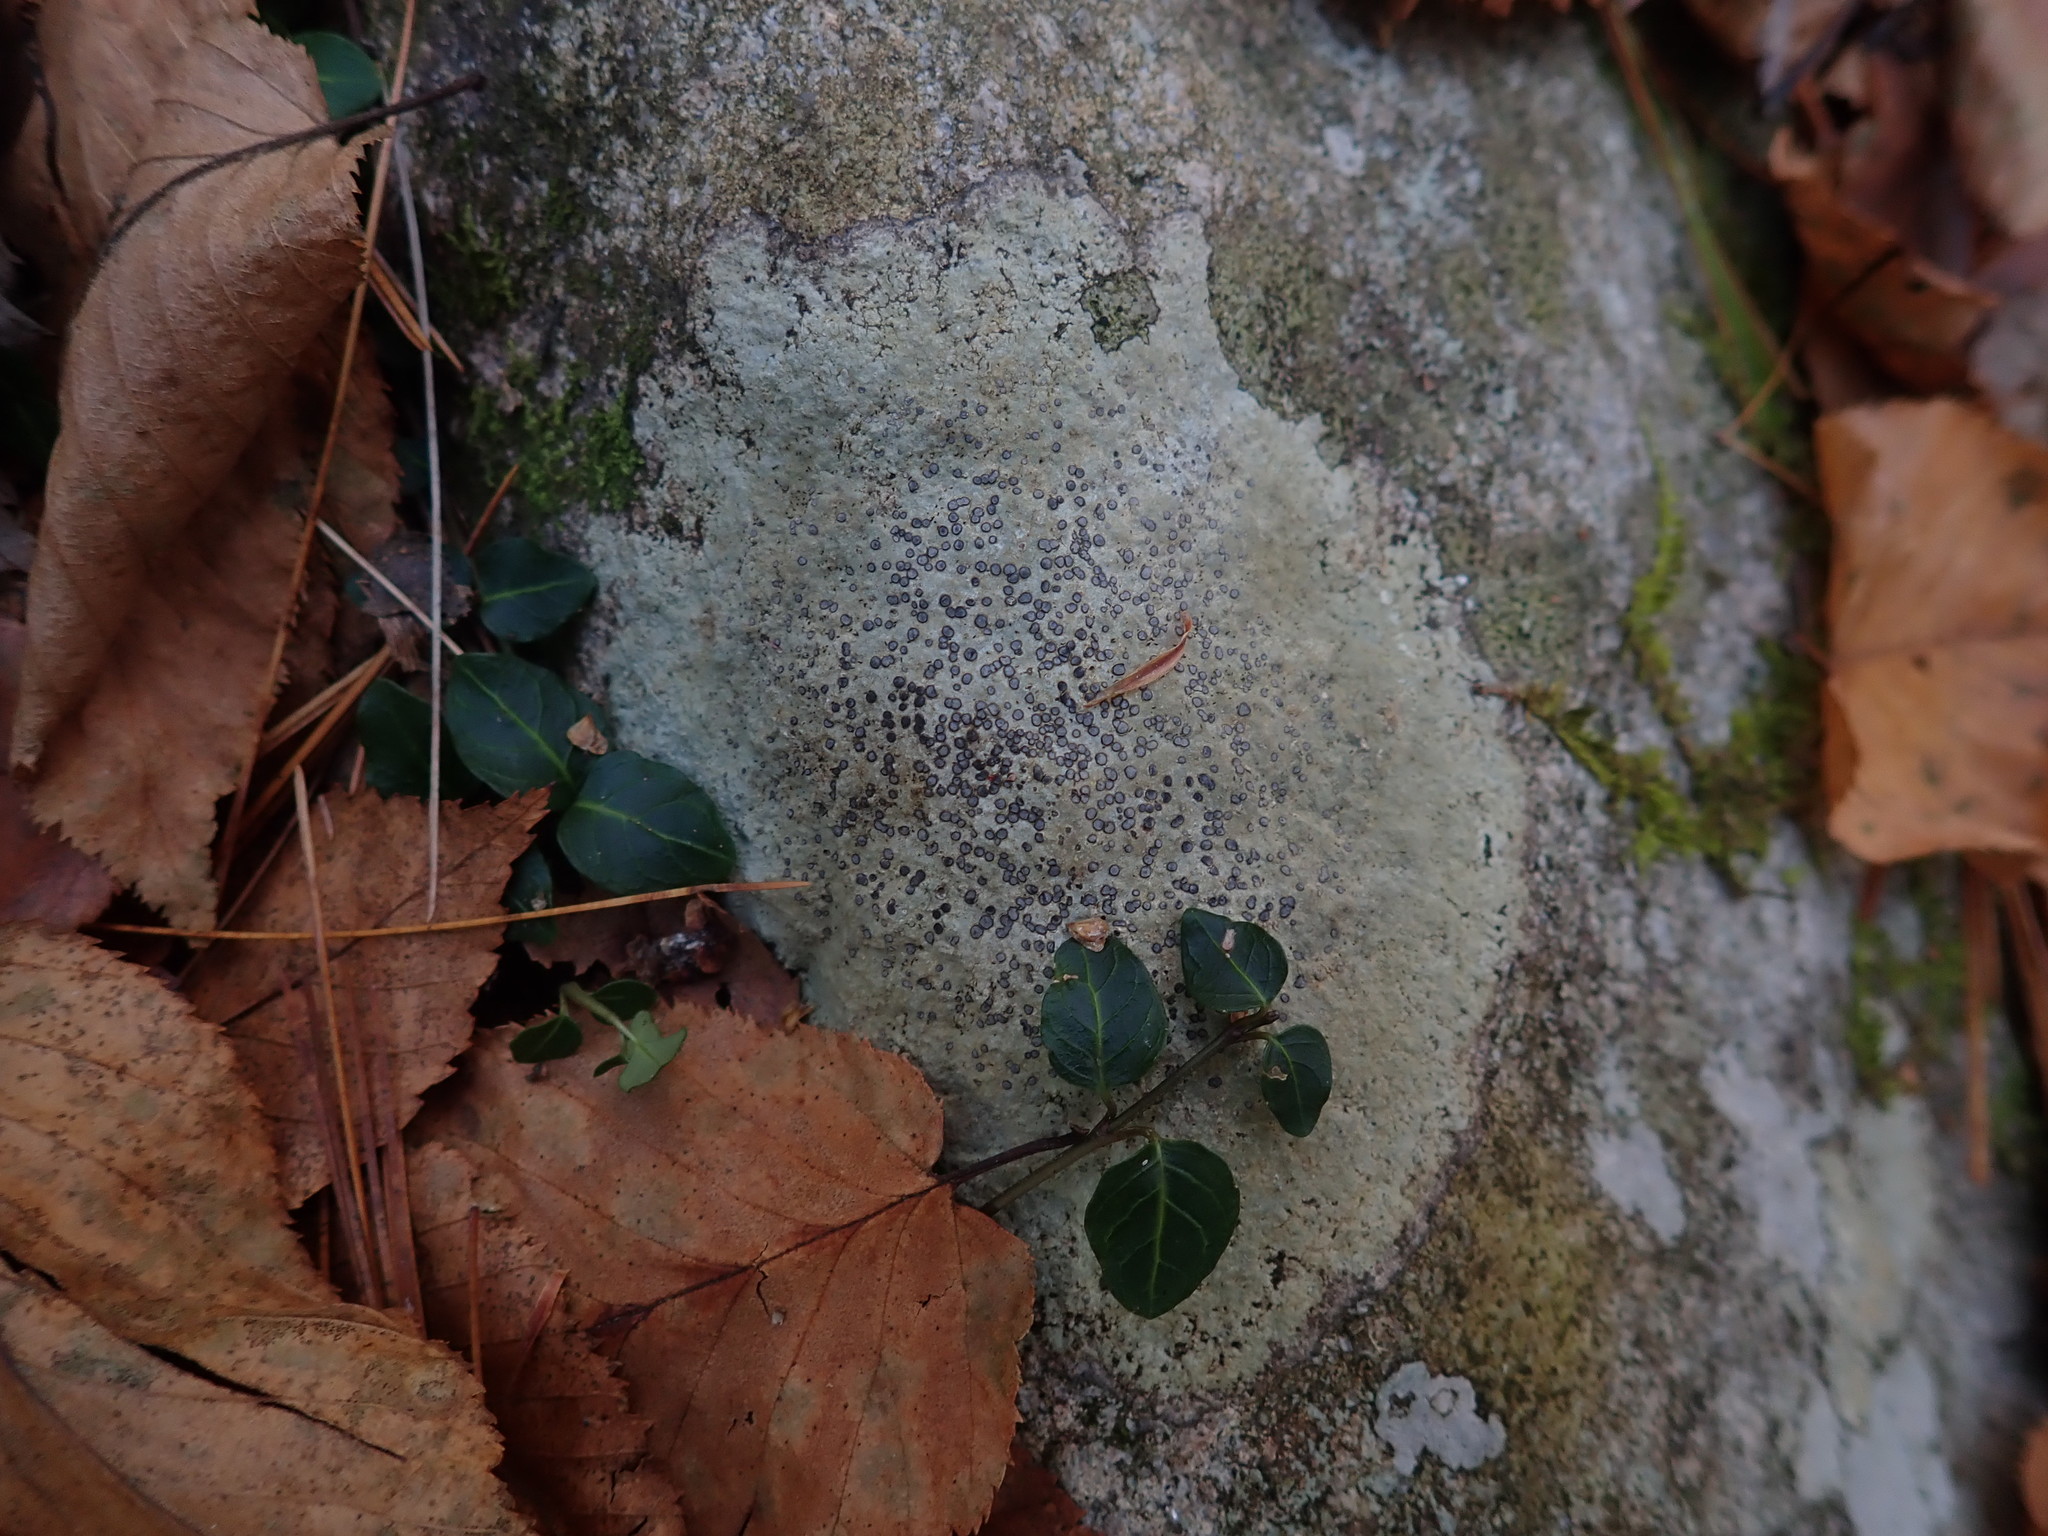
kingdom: Fungi
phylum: Ascomycota
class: Lecanoromycetes
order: Lecideales
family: Lecideaceae
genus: Porpidia
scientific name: Porpidia albocaerulescens
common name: Smokey-eyed boulder lichen
